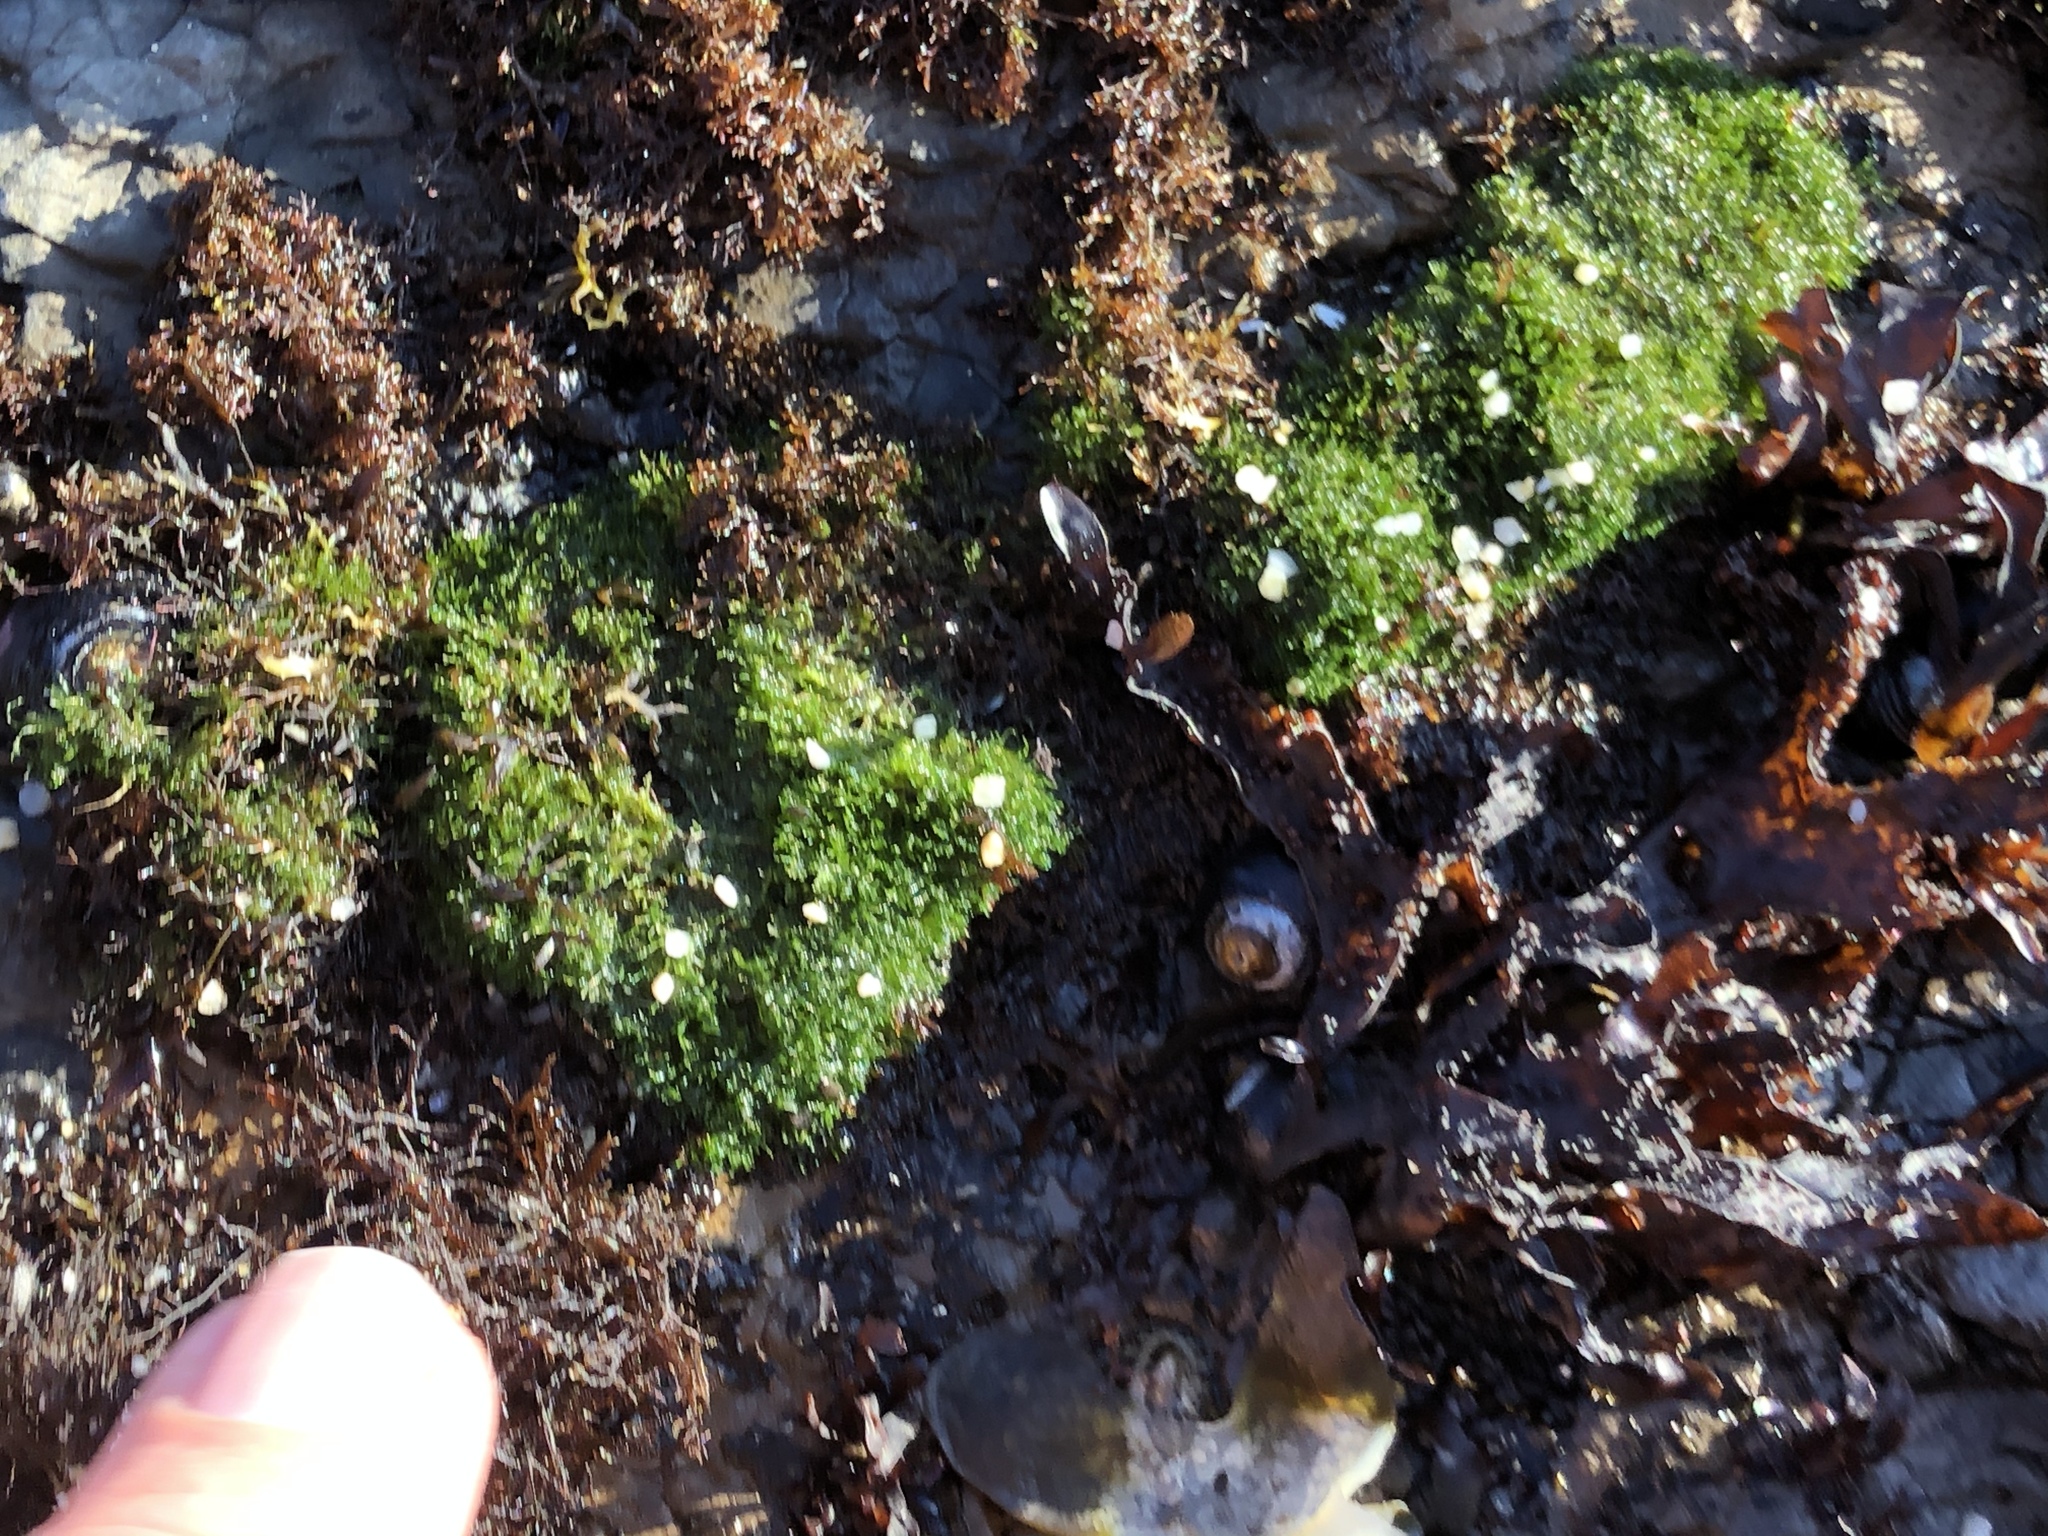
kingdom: Plantae
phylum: Chlorophyta
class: Ulvophyceae
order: Cladophorales
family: Cladophoraceae
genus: Cladophora
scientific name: Cladophora columbiana
